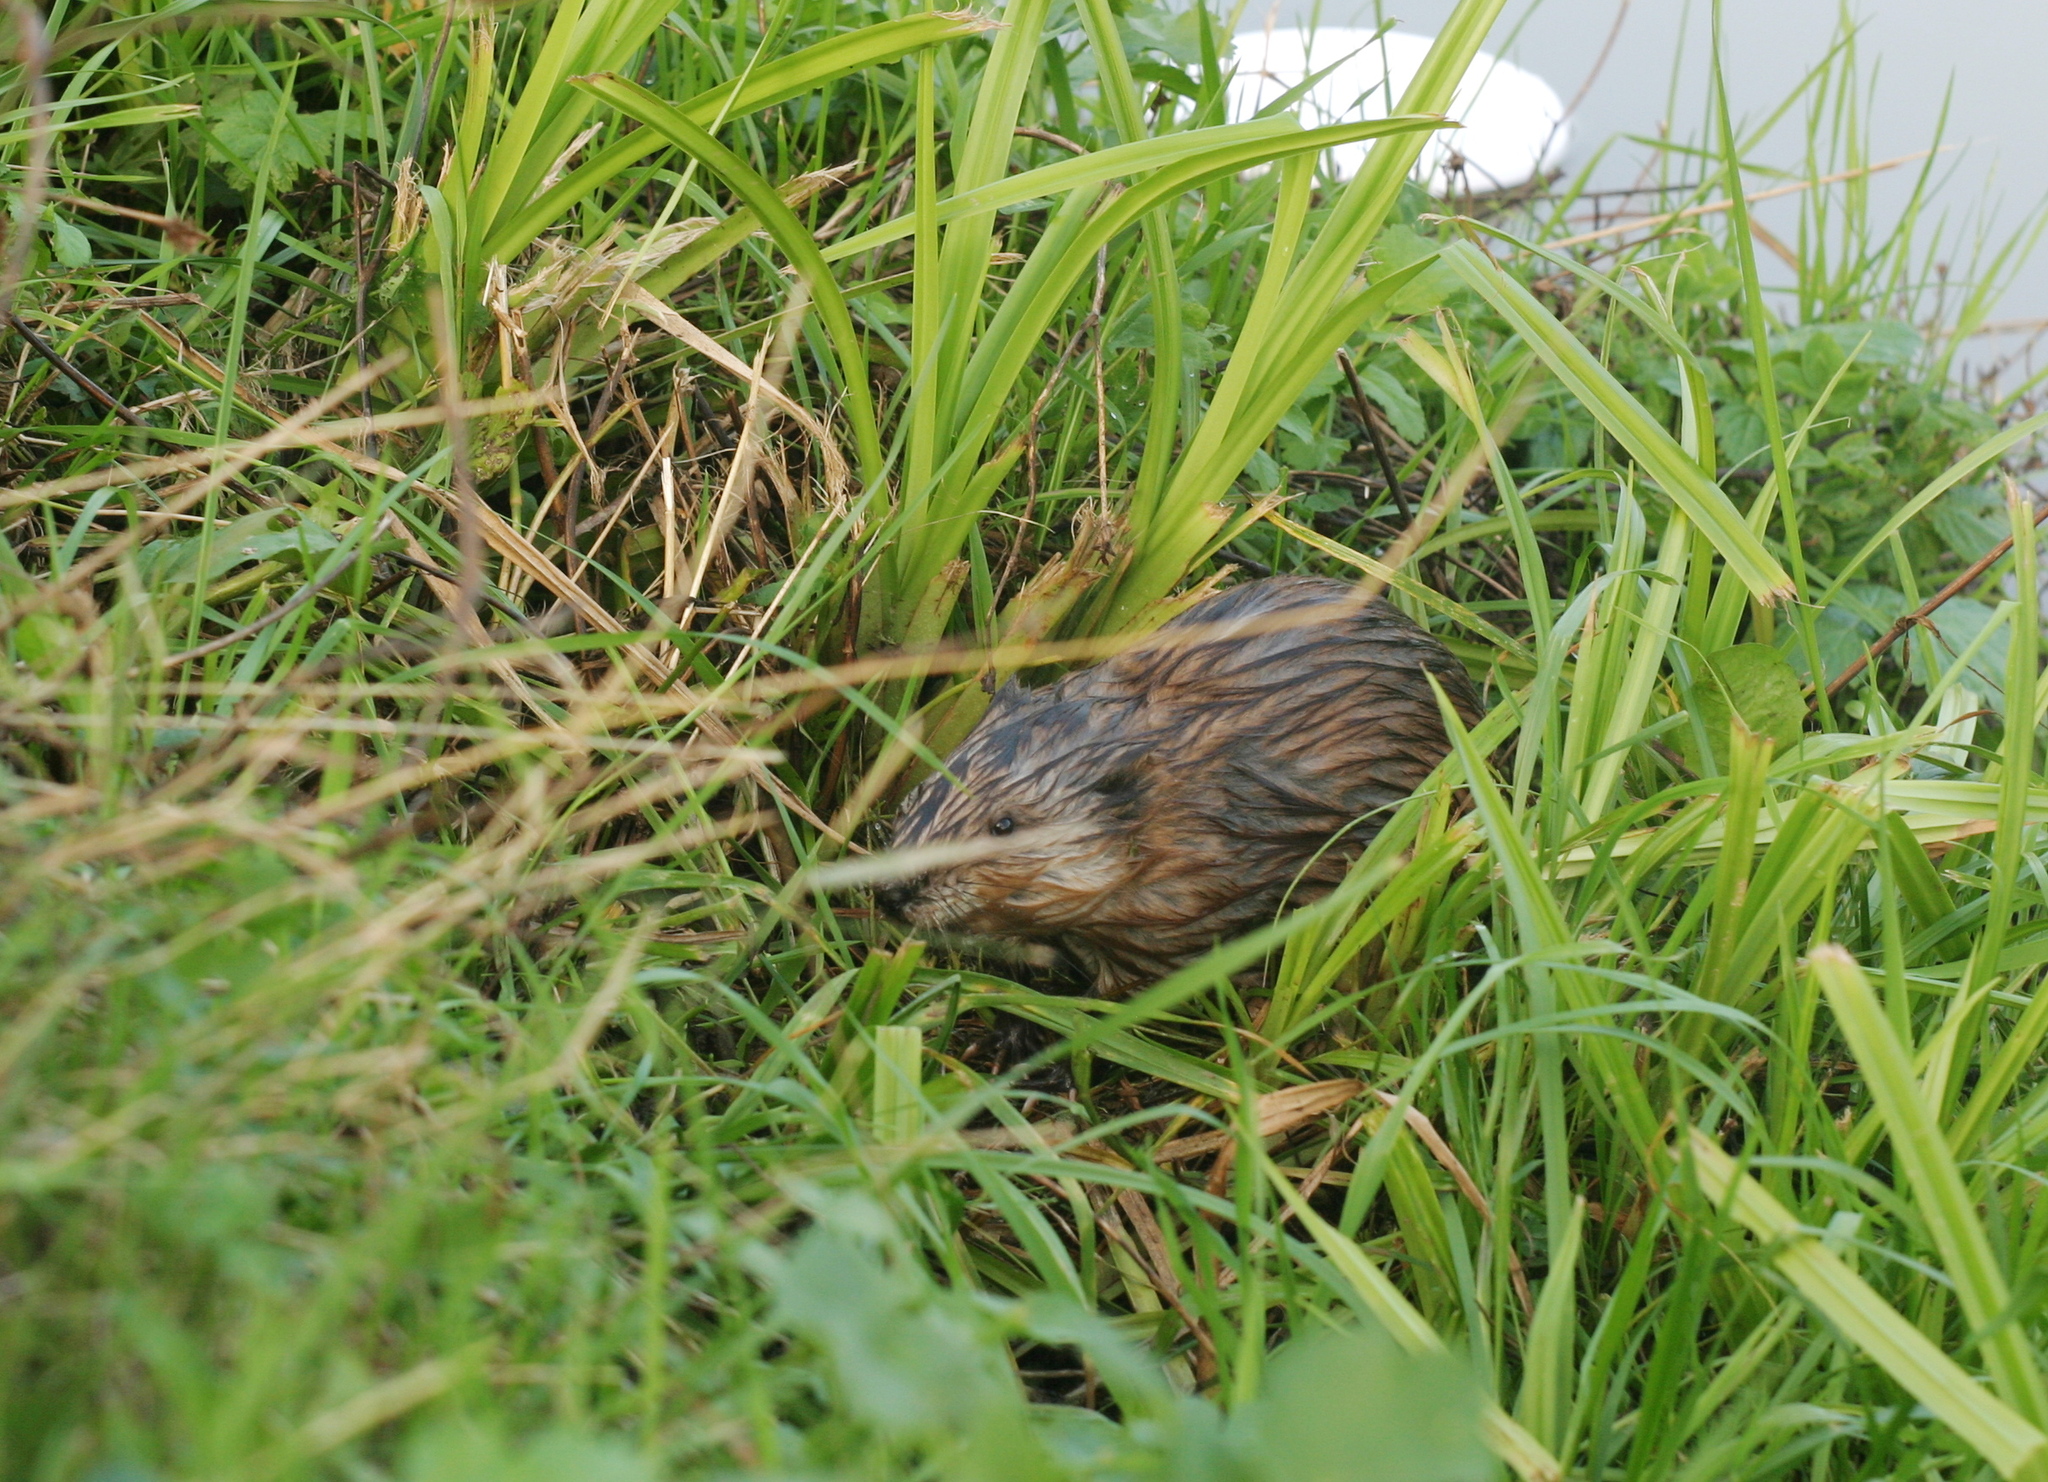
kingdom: Animalia
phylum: Chordata
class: Mammalia
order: Rodentia
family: Cricetidae
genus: Ondatra
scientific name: Ondatra zibethicus
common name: Muskrat
